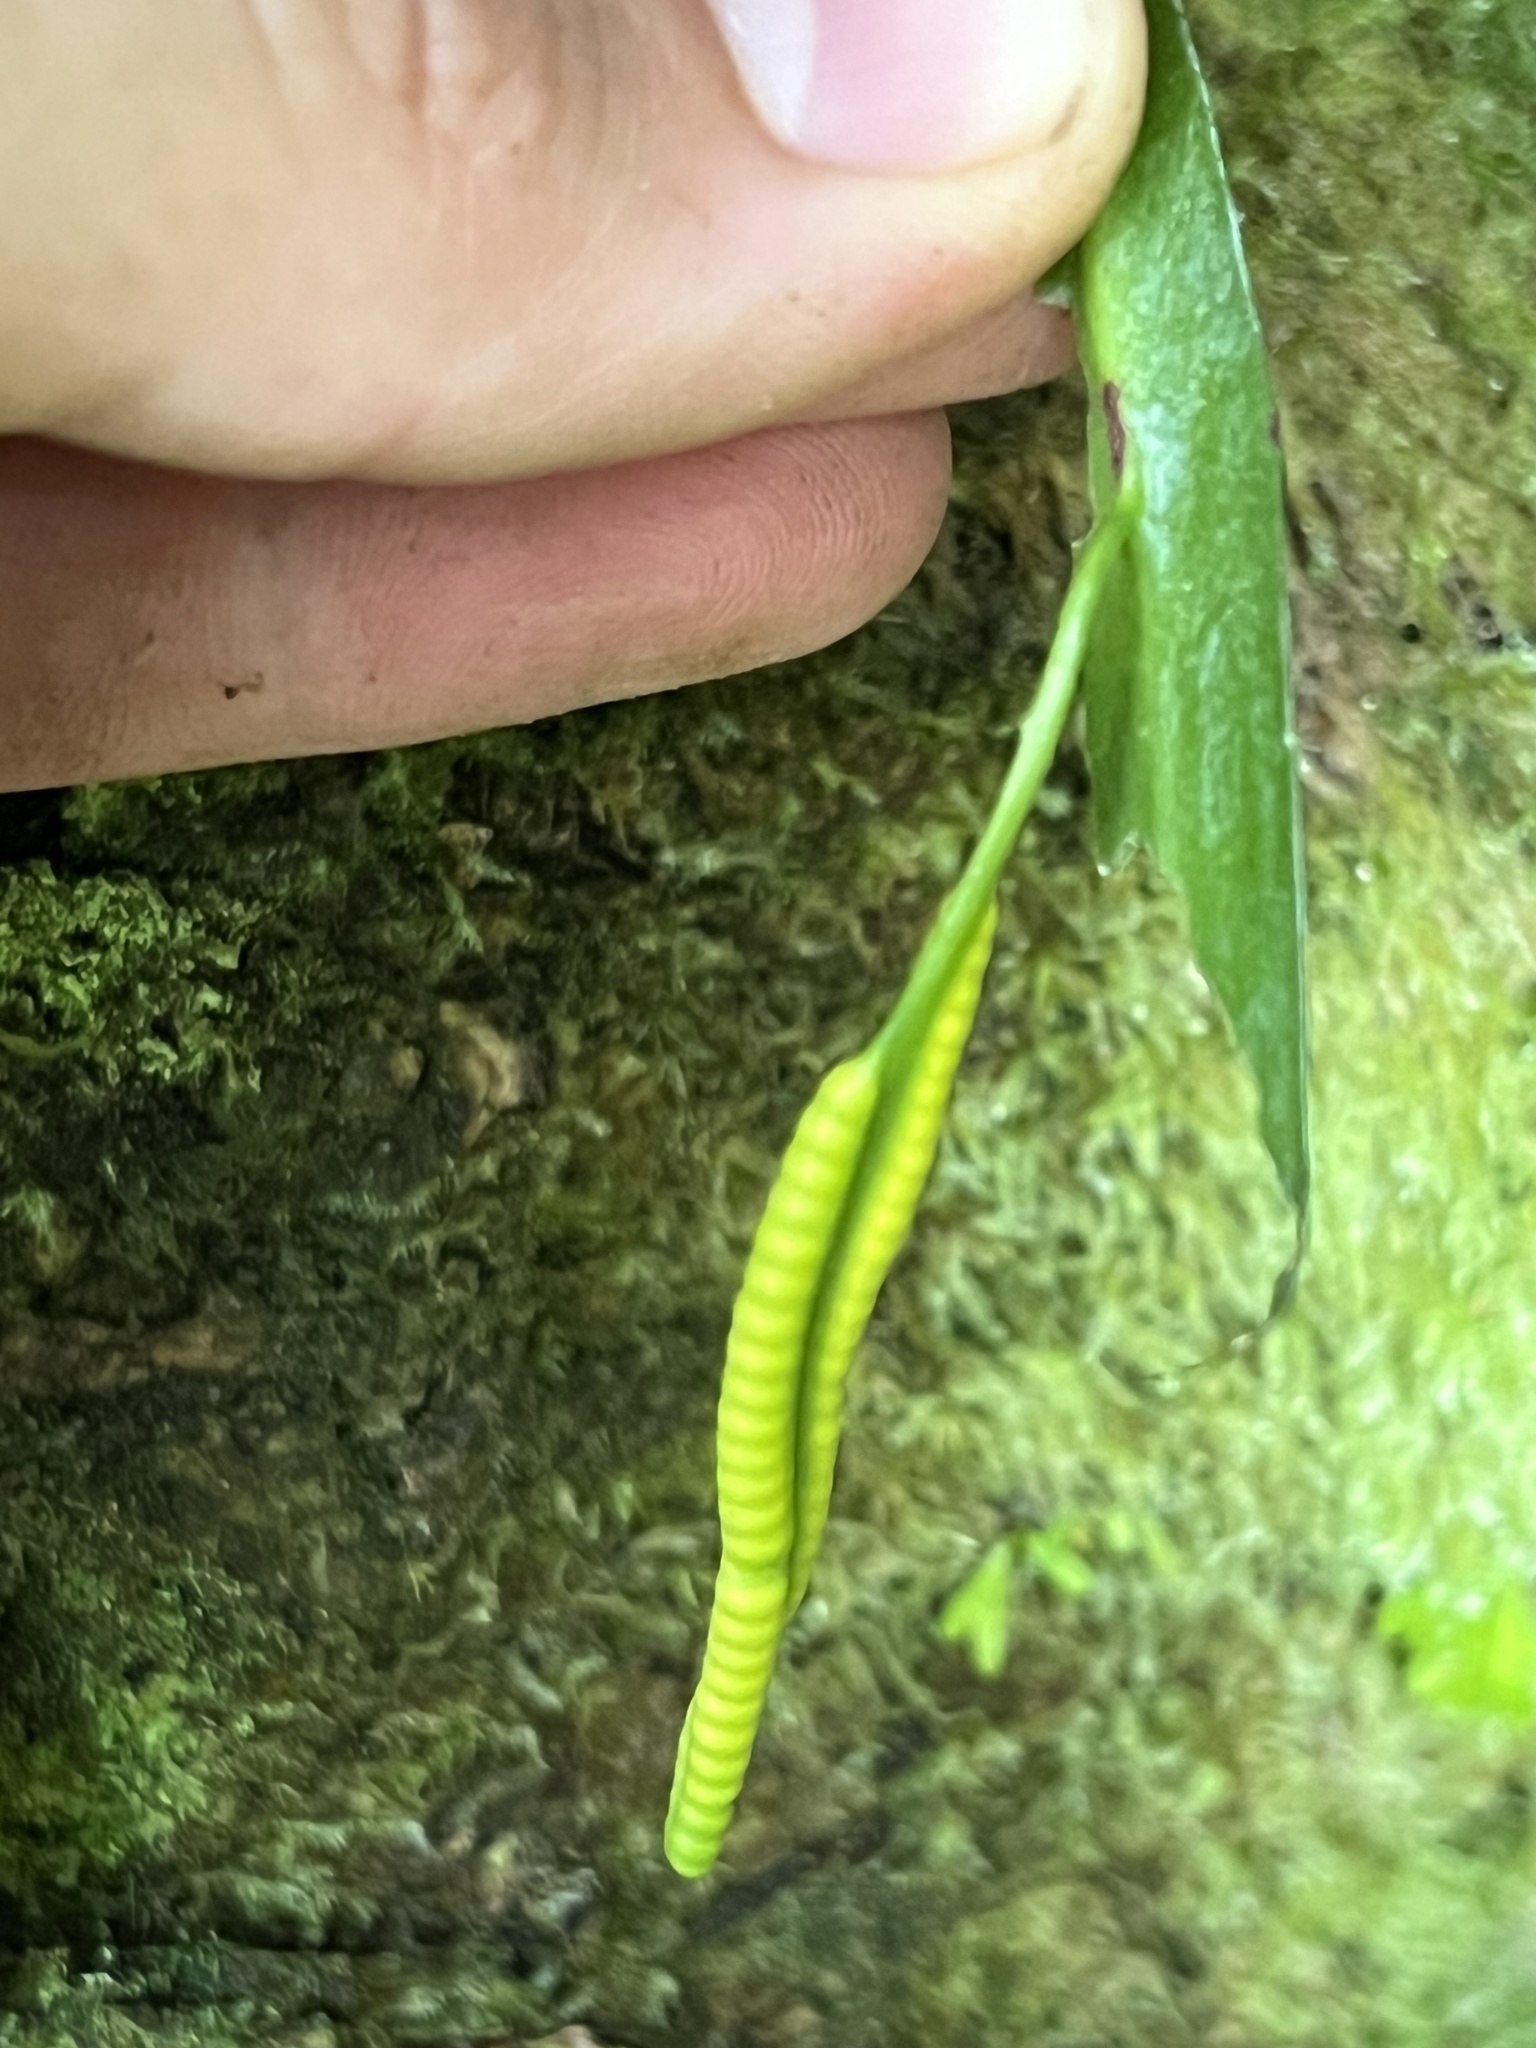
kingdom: Plantae
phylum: Tracheophyta
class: Polypodiopsida
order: Ophioglossales
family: Ophioglossaceae
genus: Ophioderma
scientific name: Ophioderma pendulum
